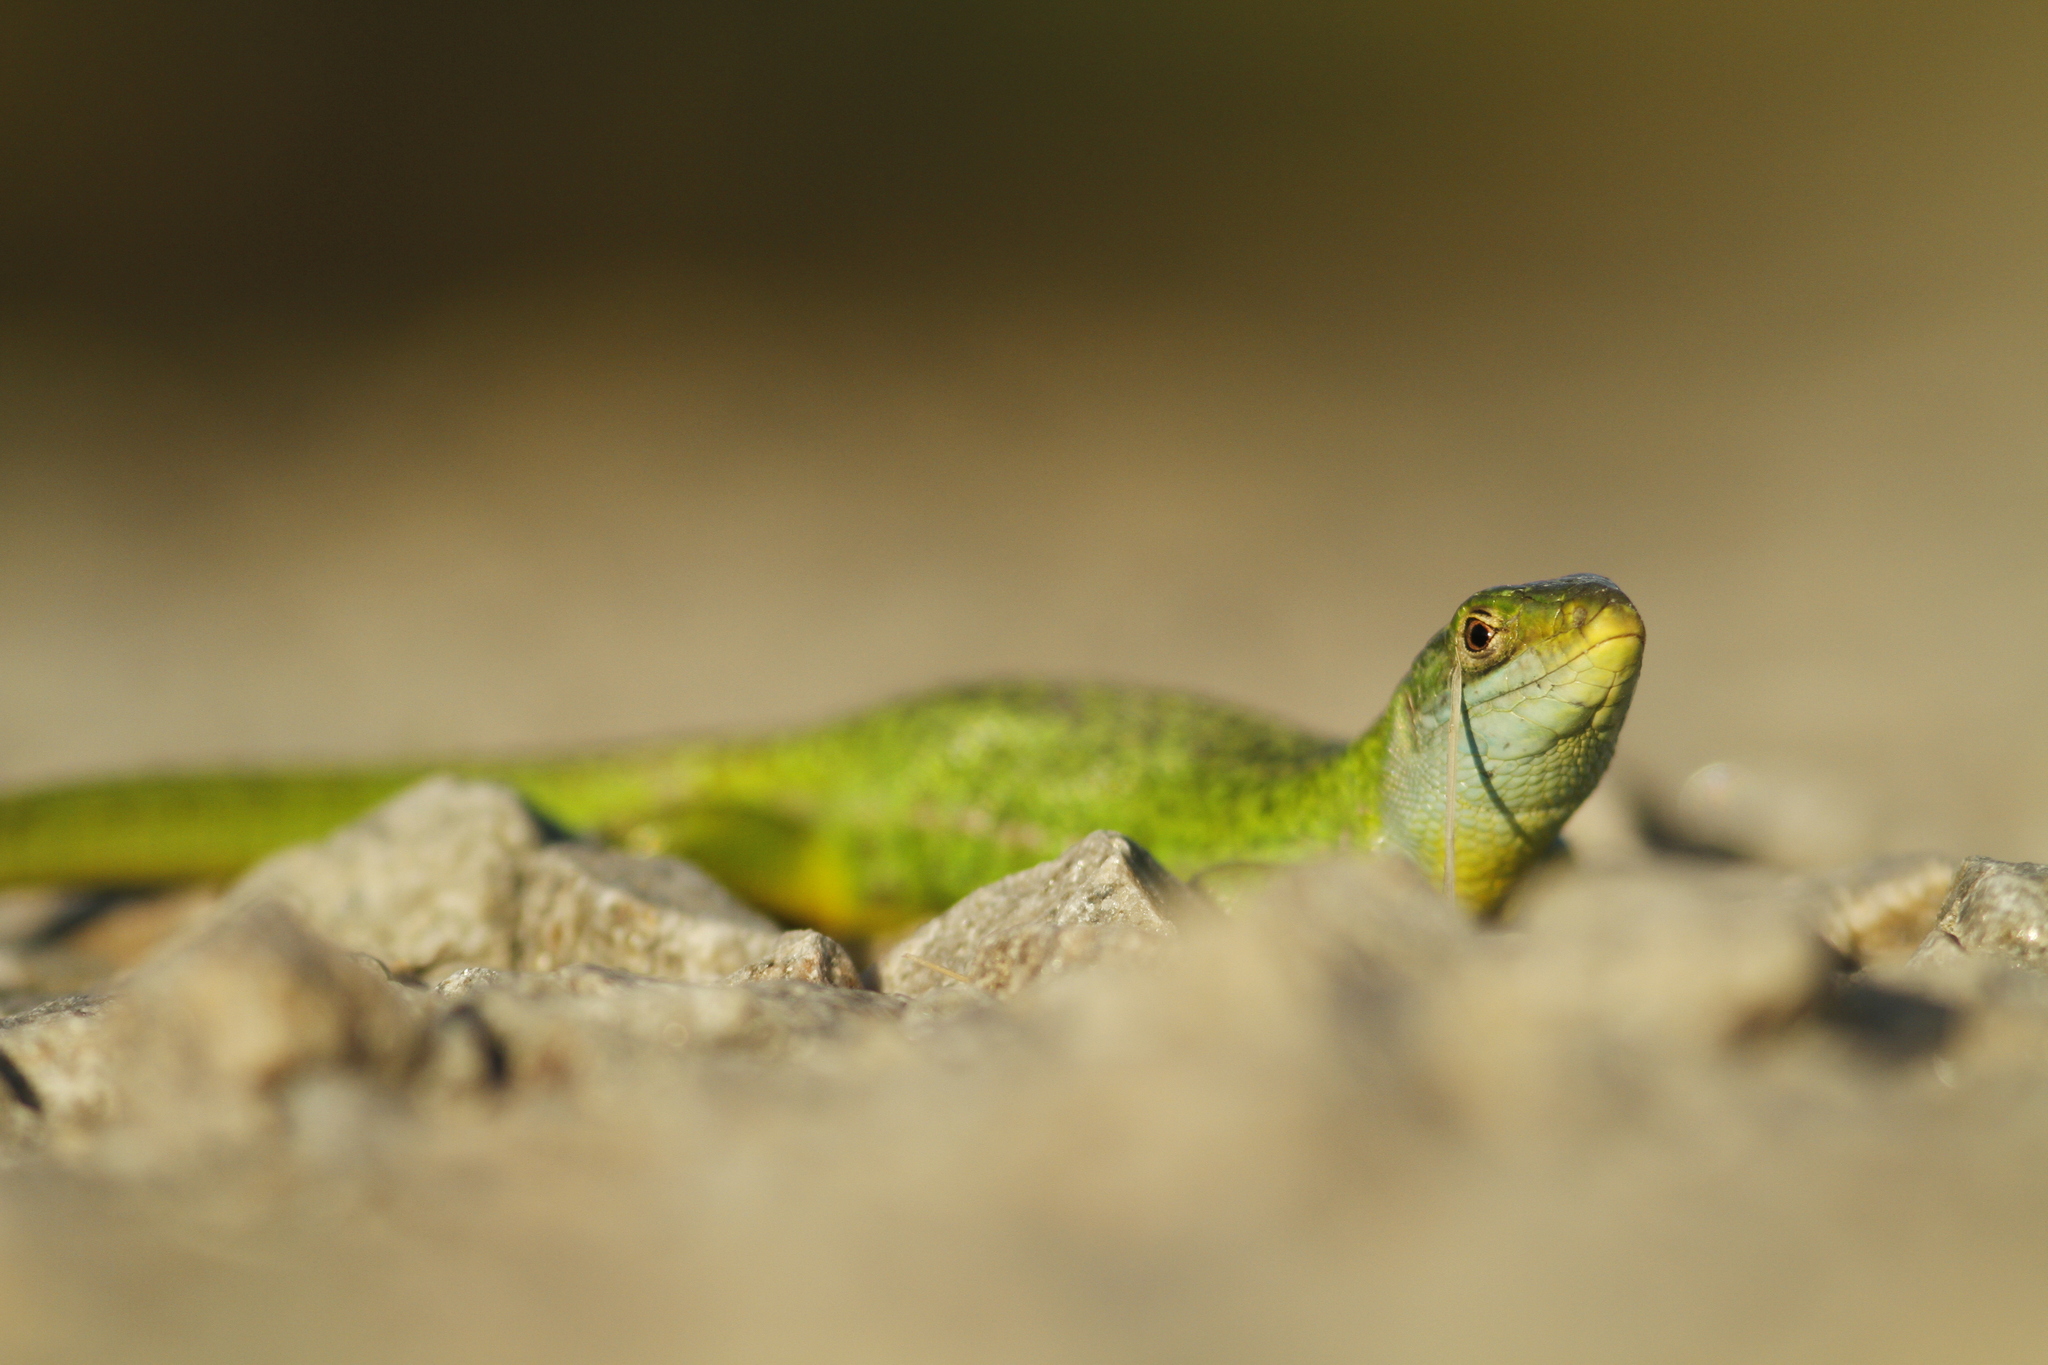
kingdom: Animalia
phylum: Chordata
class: Squamata
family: Lacertidae
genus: Lacerta
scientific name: Lacerta bilineata
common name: Western green lizard
